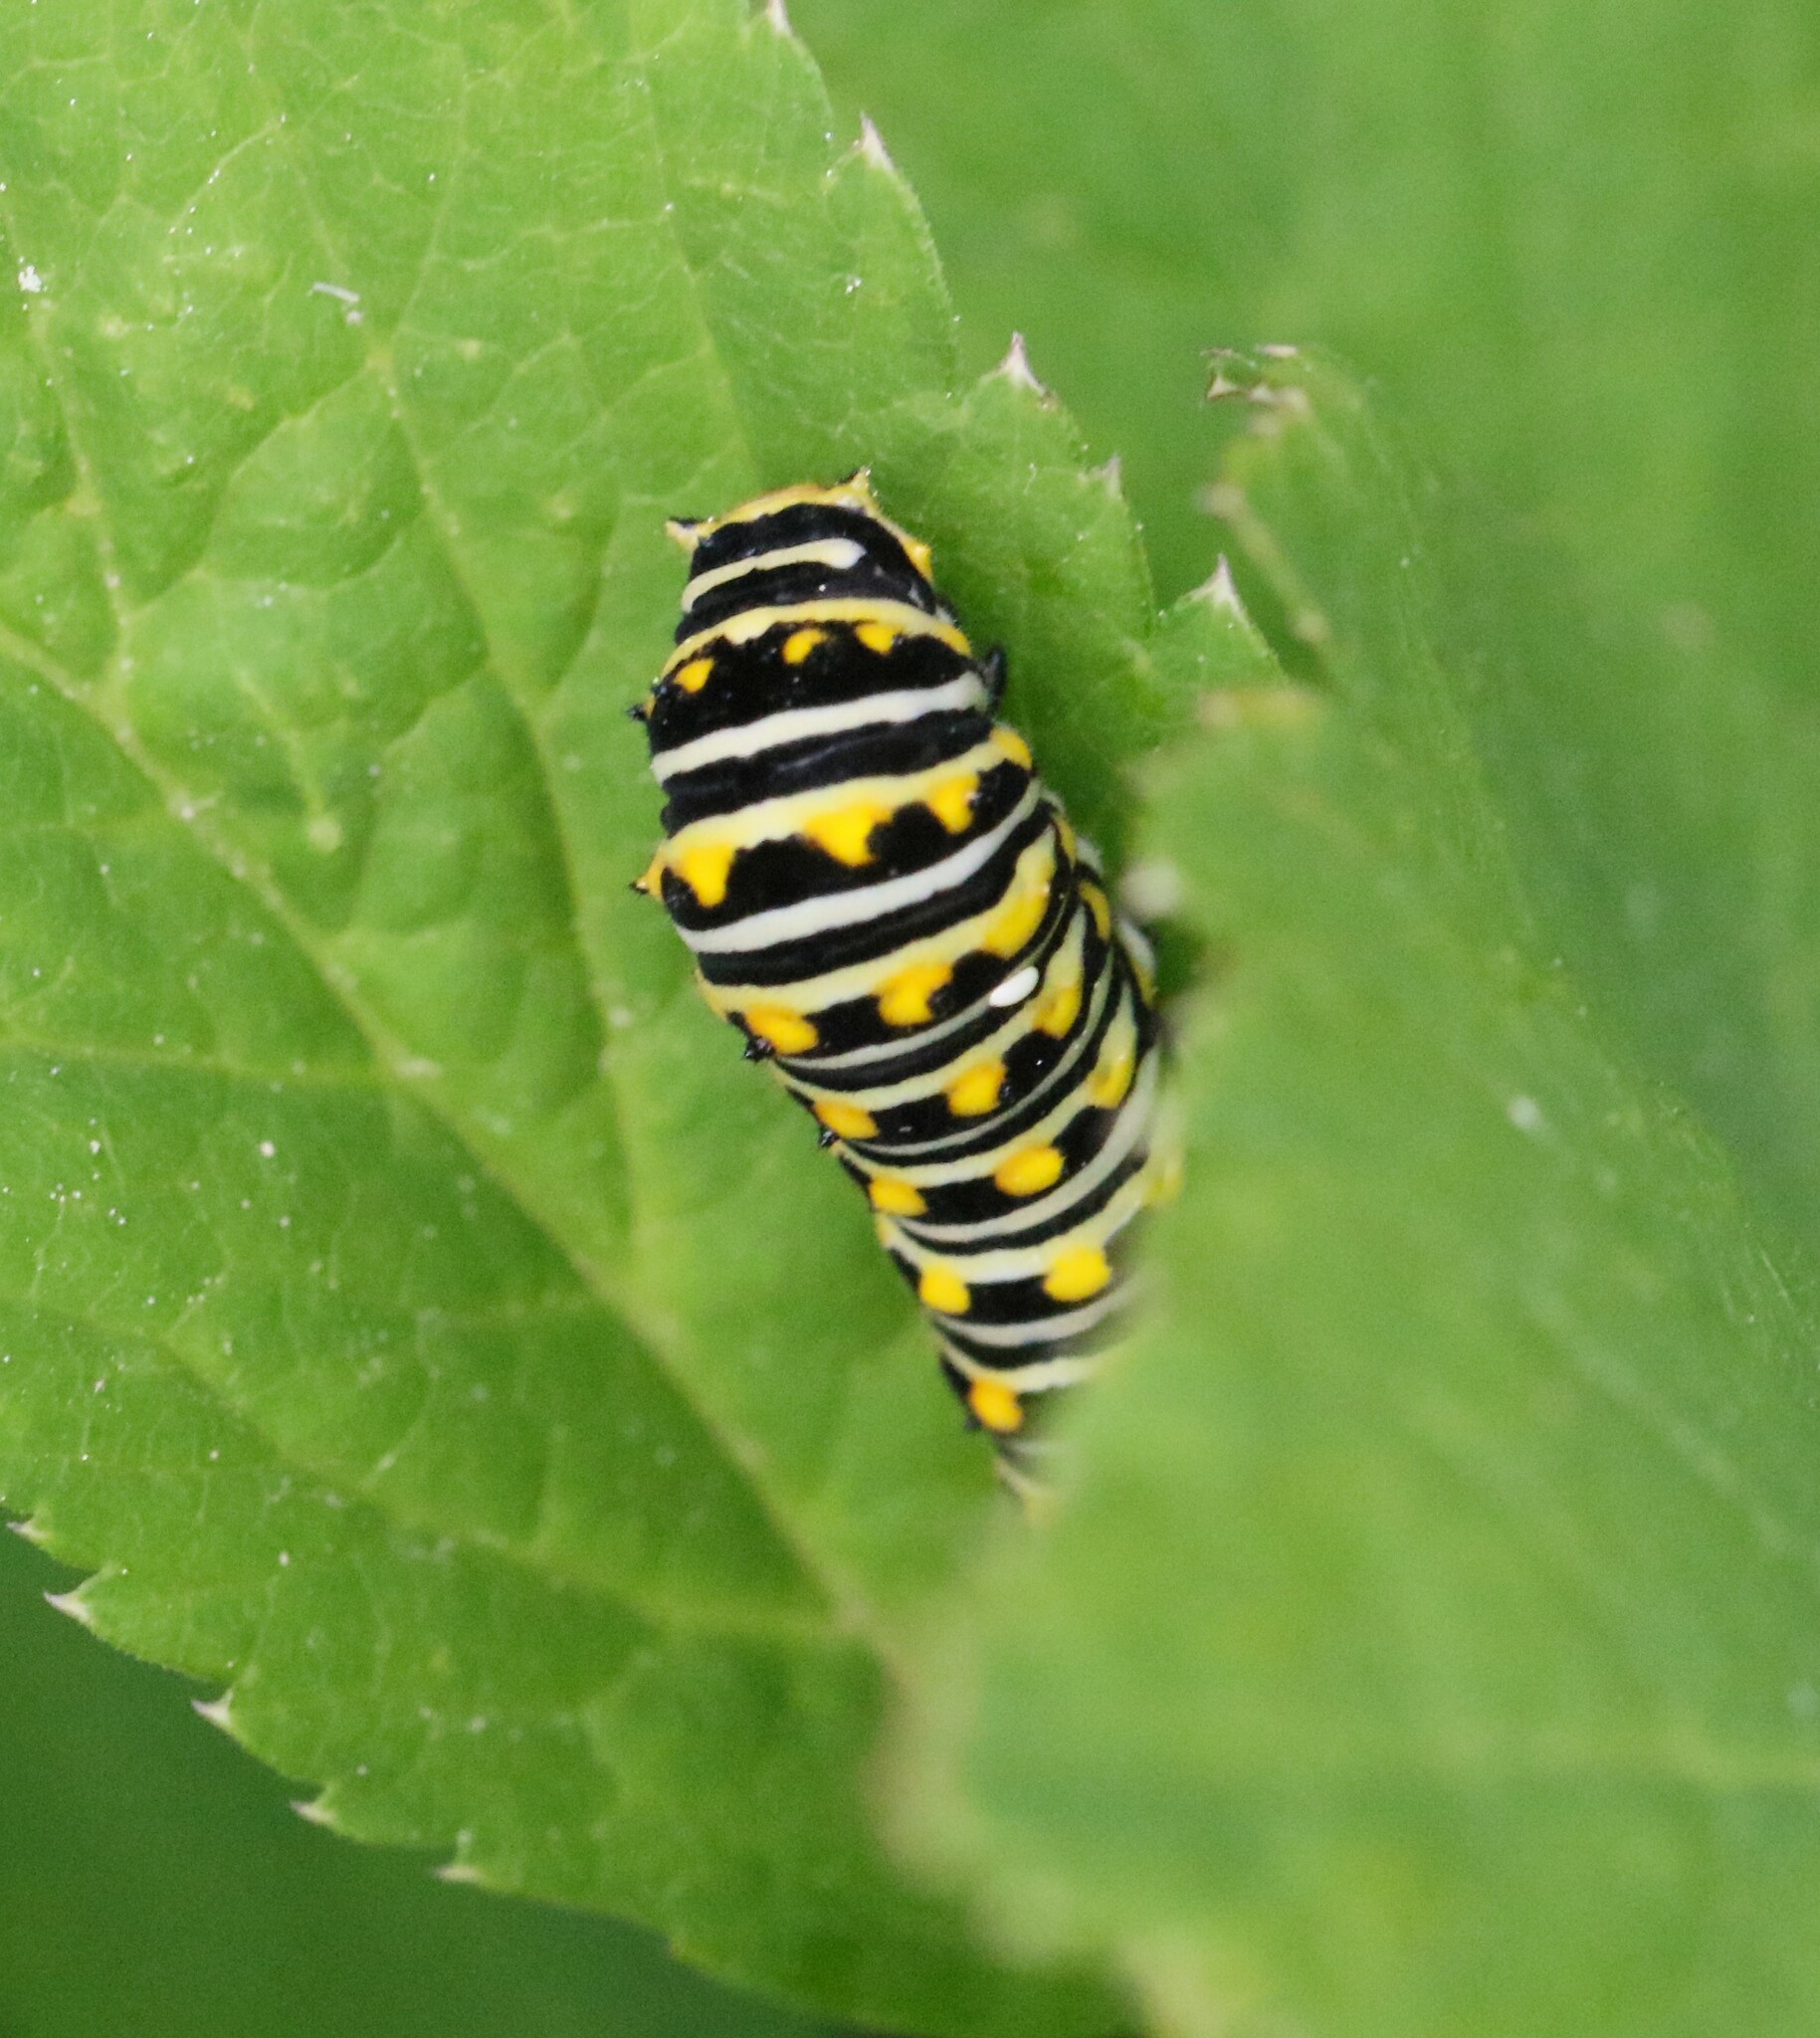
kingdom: Animalia
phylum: Arthropoda
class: Insecta
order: Lepidoptera
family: Papilionidae
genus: Papilio
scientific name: Papilio polyxenes
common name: Black swallowtail
